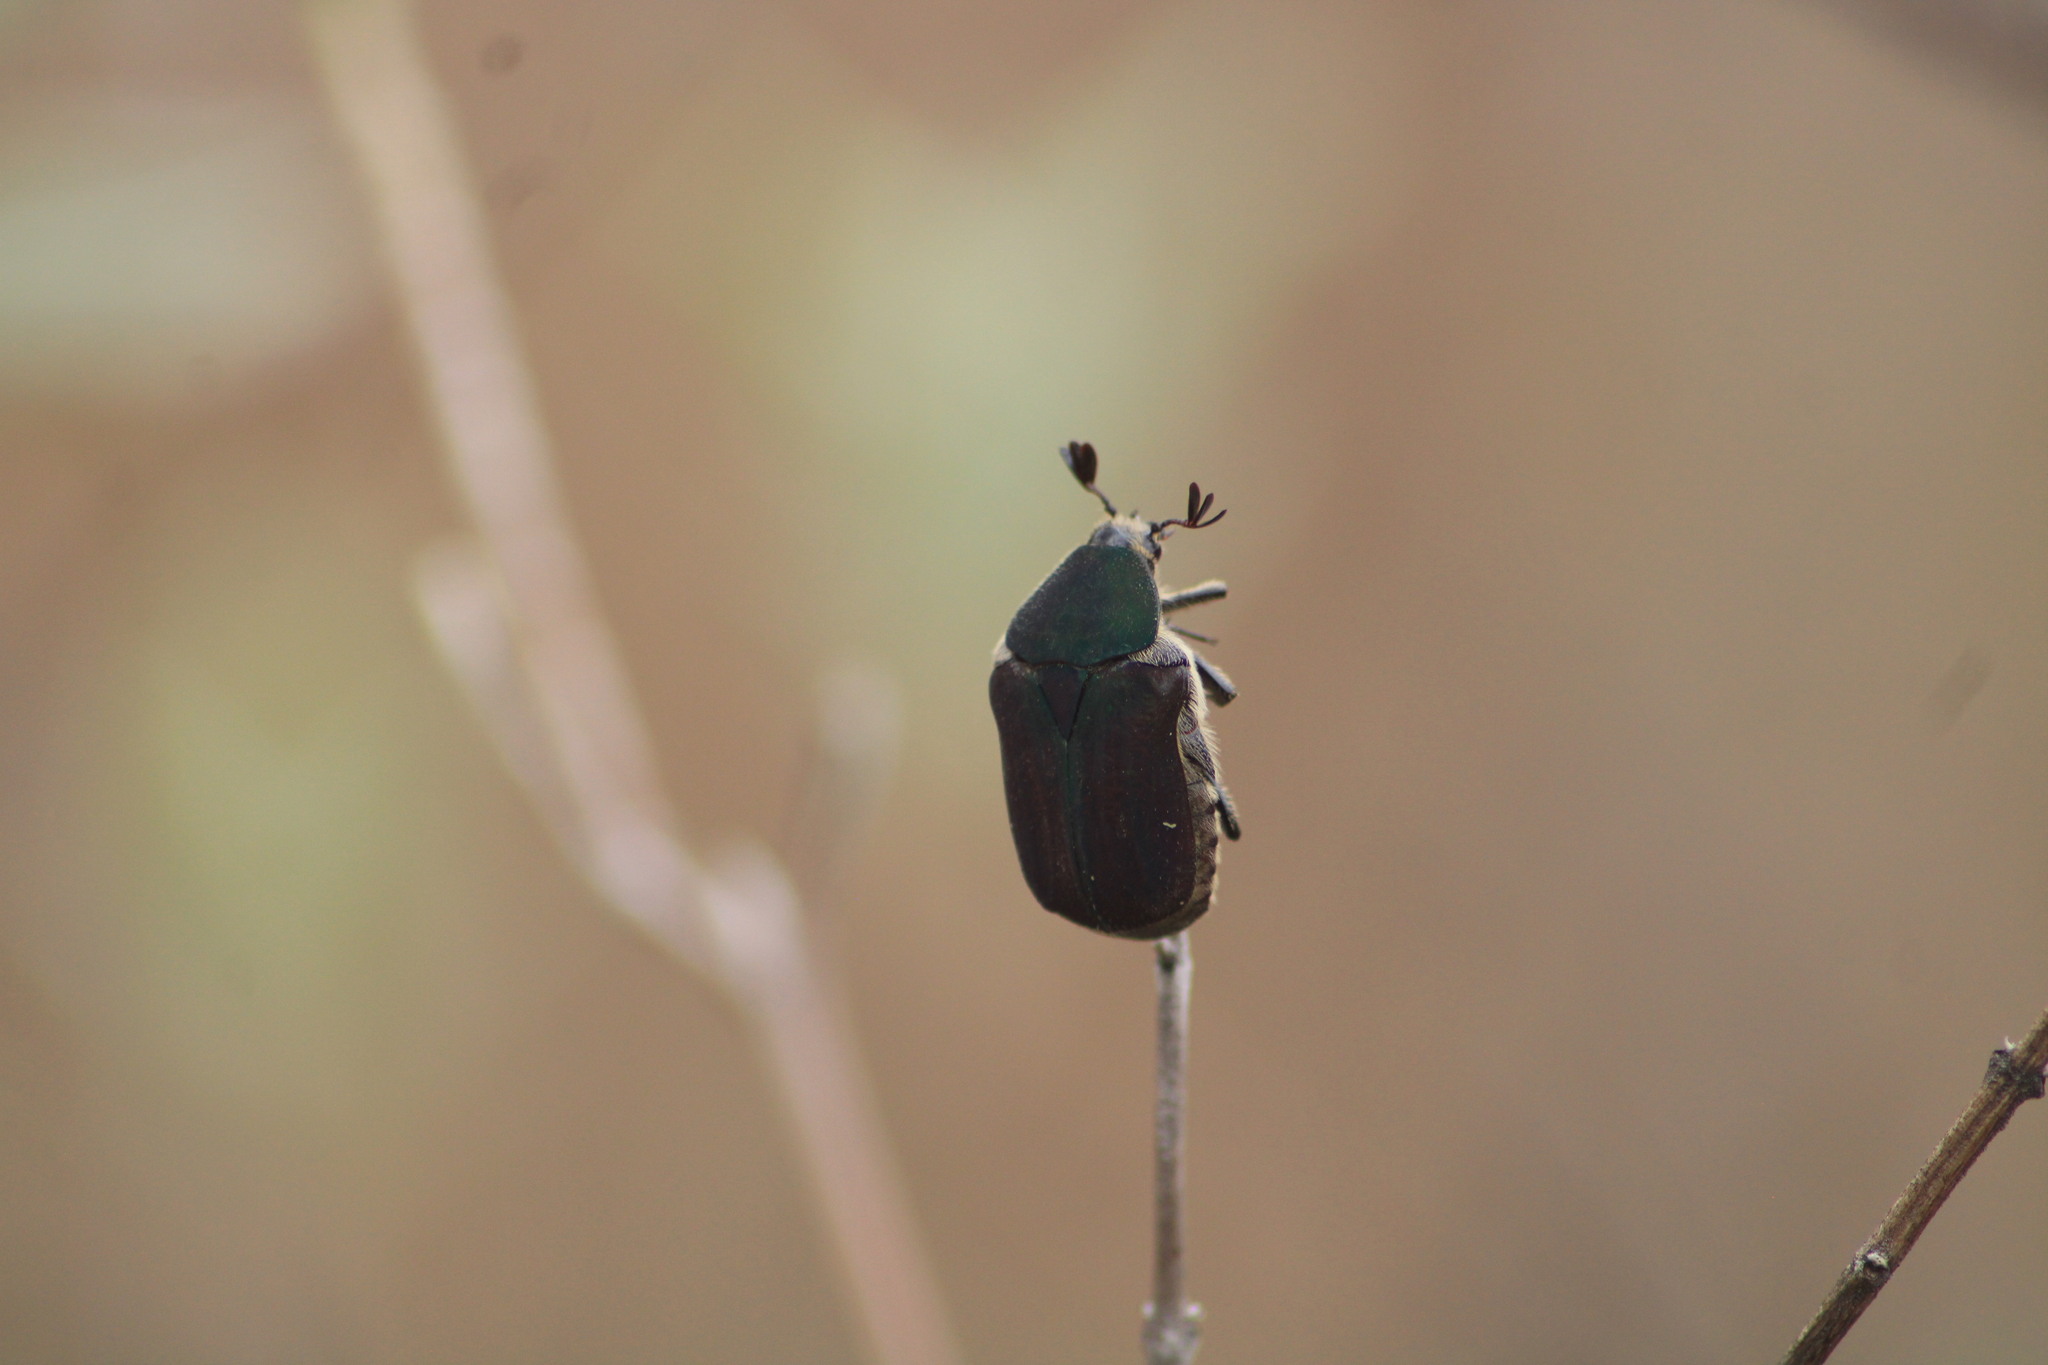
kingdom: Animalia
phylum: Arthropoda
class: Insecta
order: Coleoptera
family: Scarabaeidae
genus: Euphoria
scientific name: Euphoria monticola
